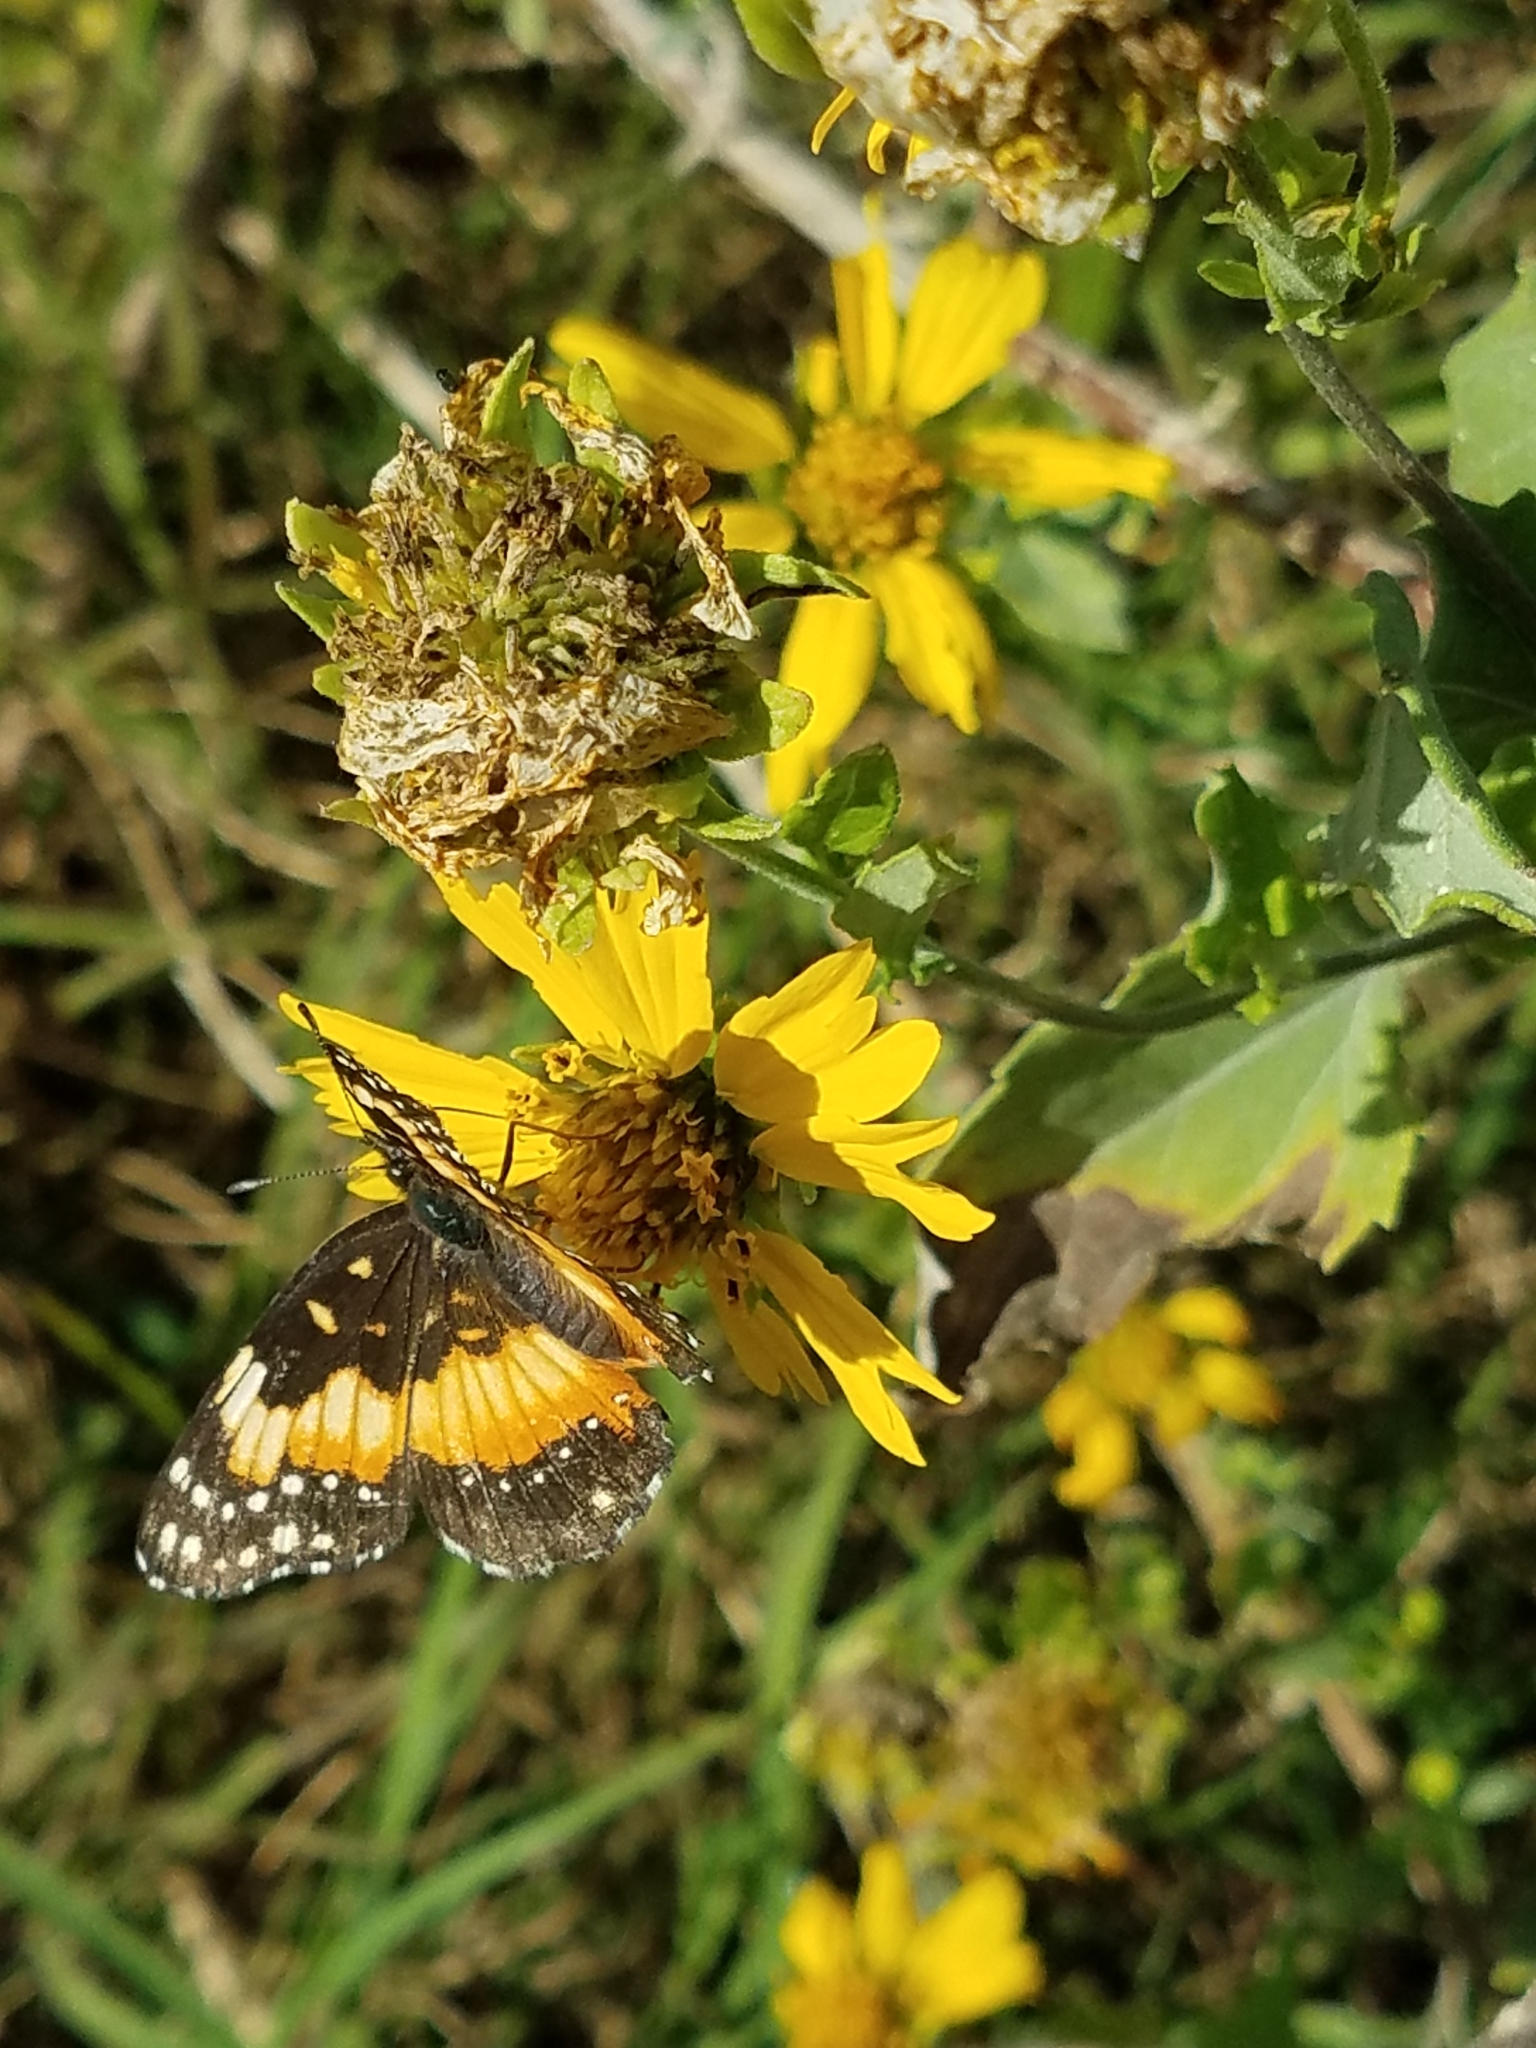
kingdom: Animalia
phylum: Arthropoda
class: Insecta
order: Lepidoptera
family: Nymphalidae
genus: Chlosyne
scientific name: Chlosyne lacinia
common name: Bordered patch
